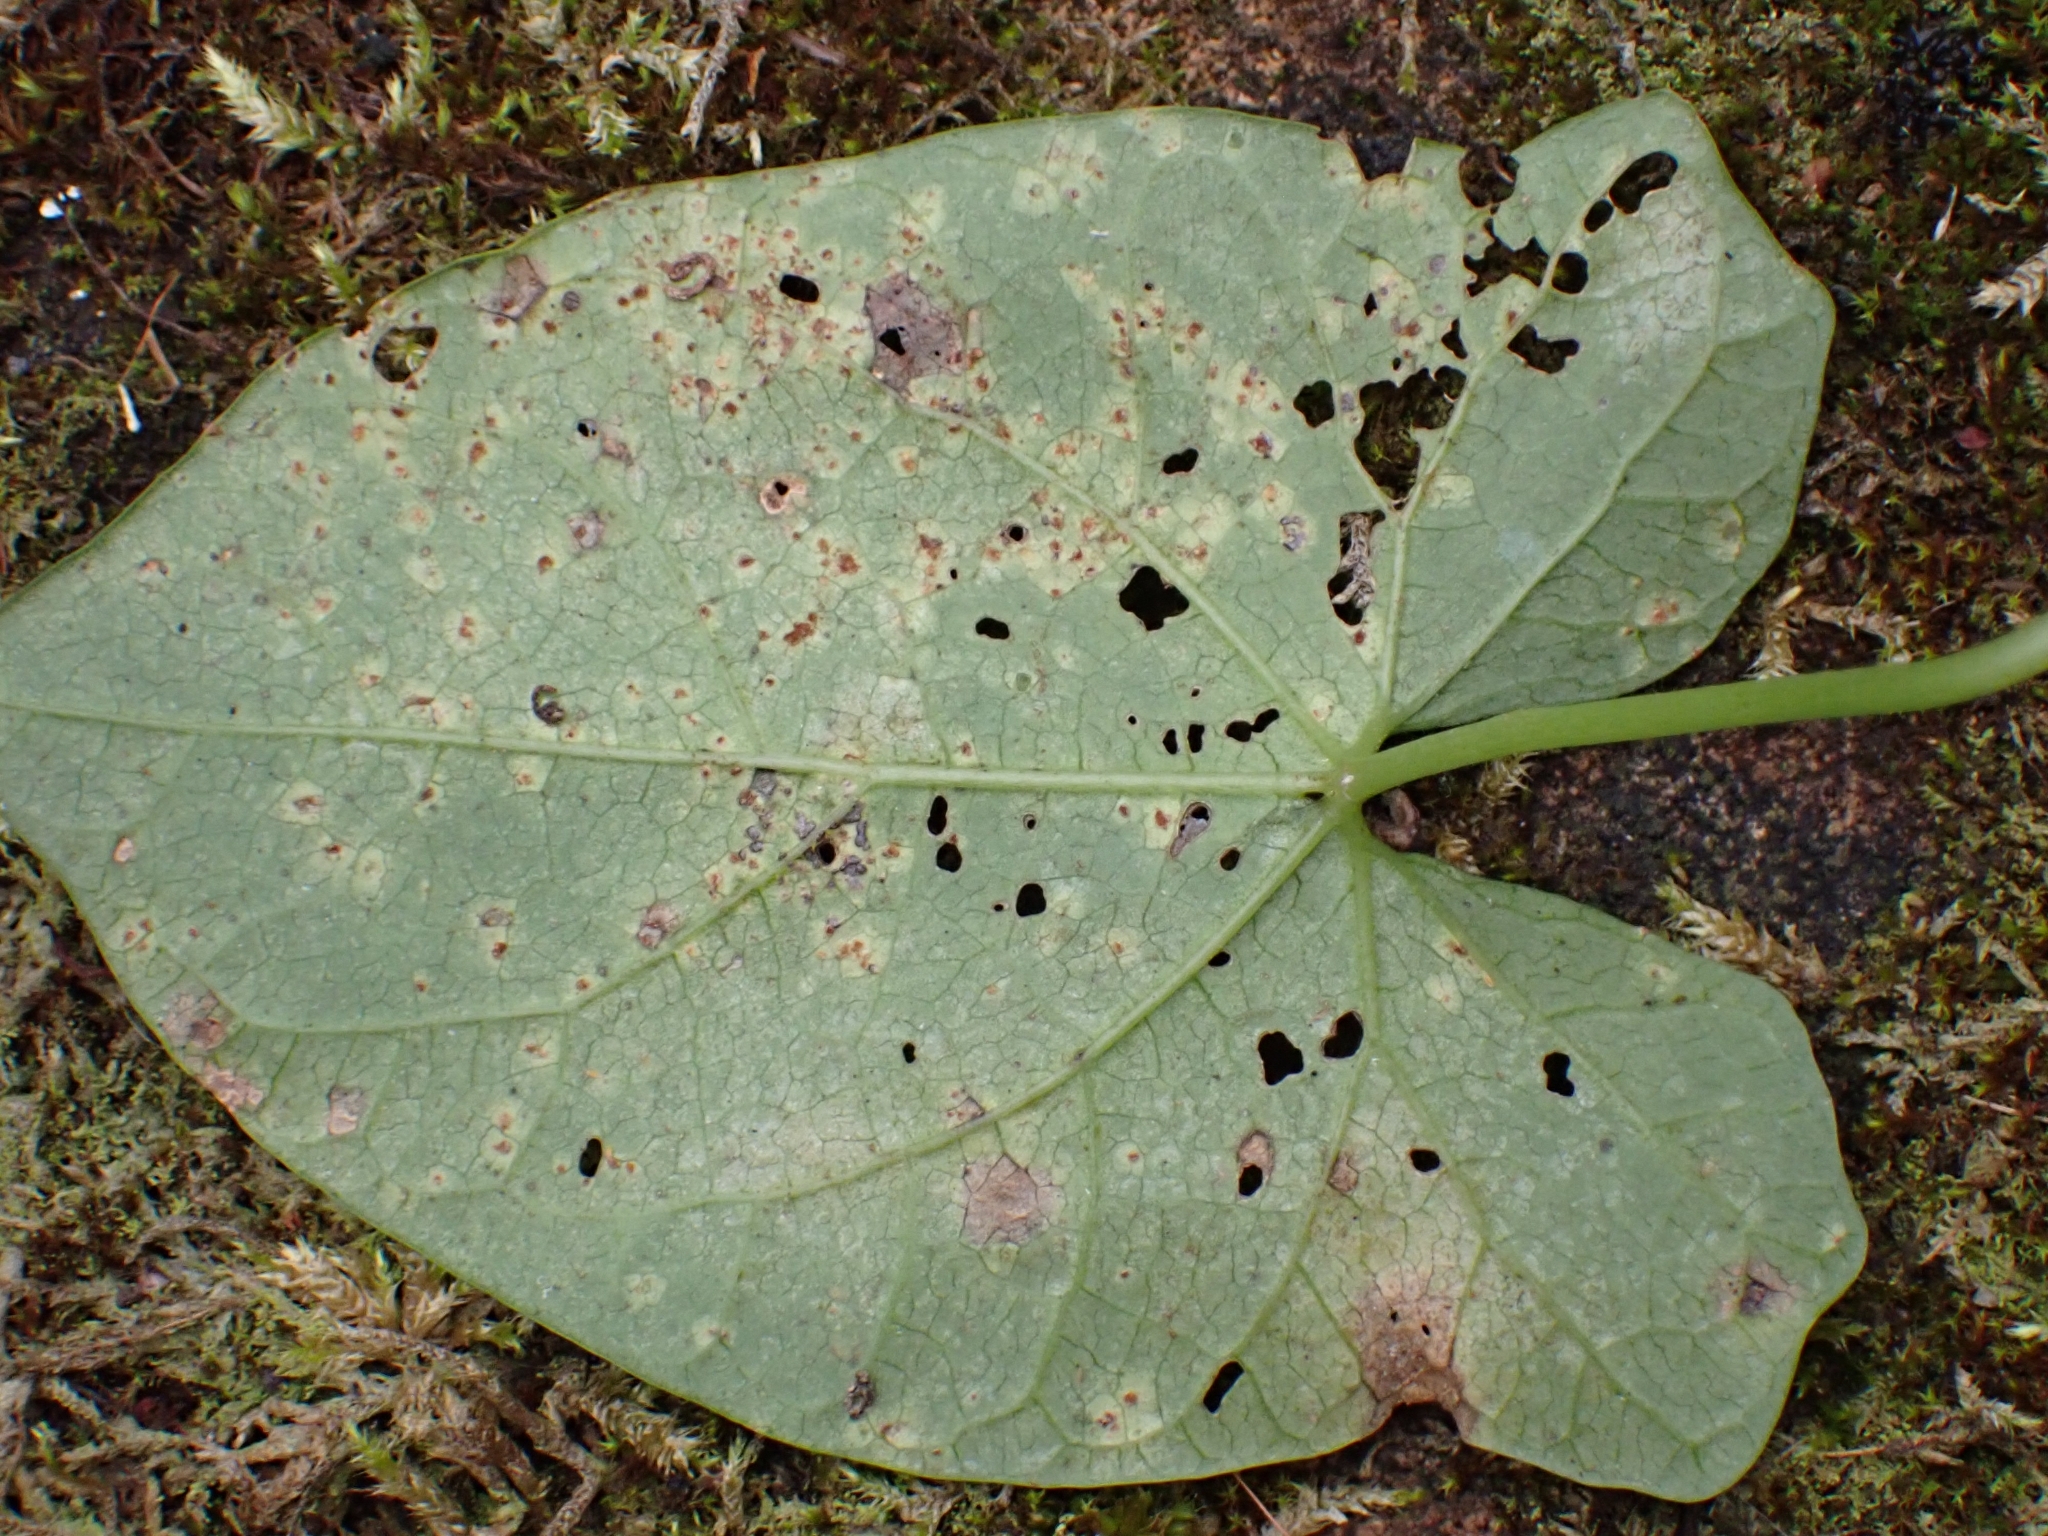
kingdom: Fungi
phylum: Basidiomycota
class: Pucciniomycetes
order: Pucciniales
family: Pucciniaceae
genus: Puccinia
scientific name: Puccinia convolvuli
